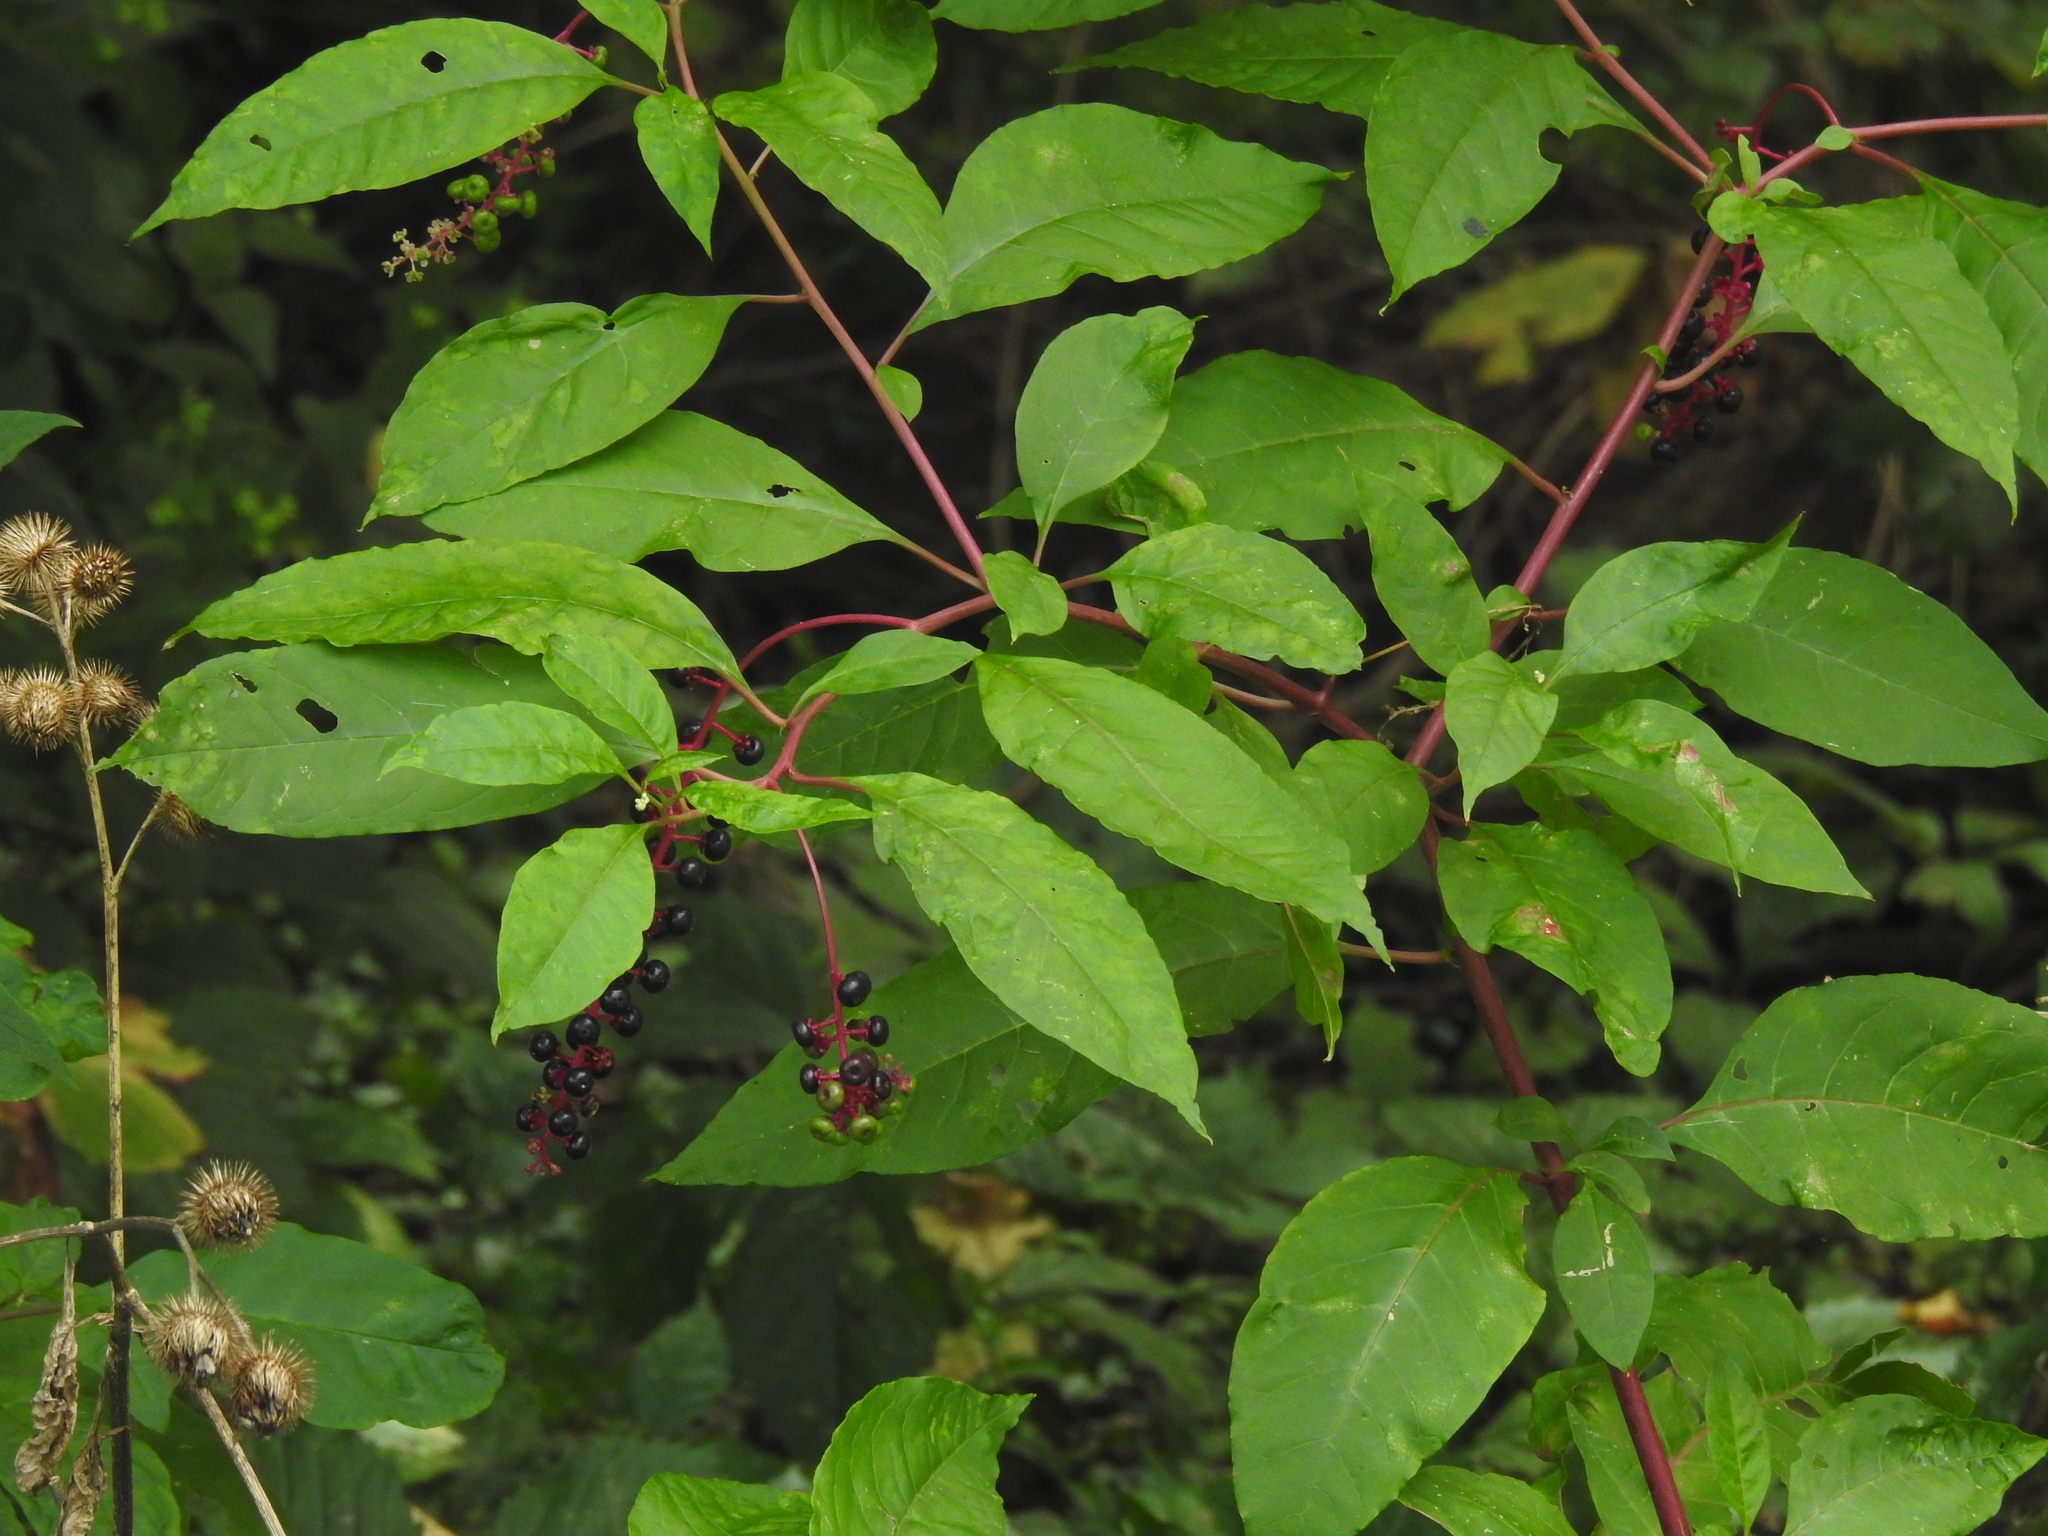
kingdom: Plantae
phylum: Tracheophyta
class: Magnoliopsida
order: Caryophyllales
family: Phytolaccaceae
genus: Phytolacca
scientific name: Phytolacca americana
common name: American pokeweed
